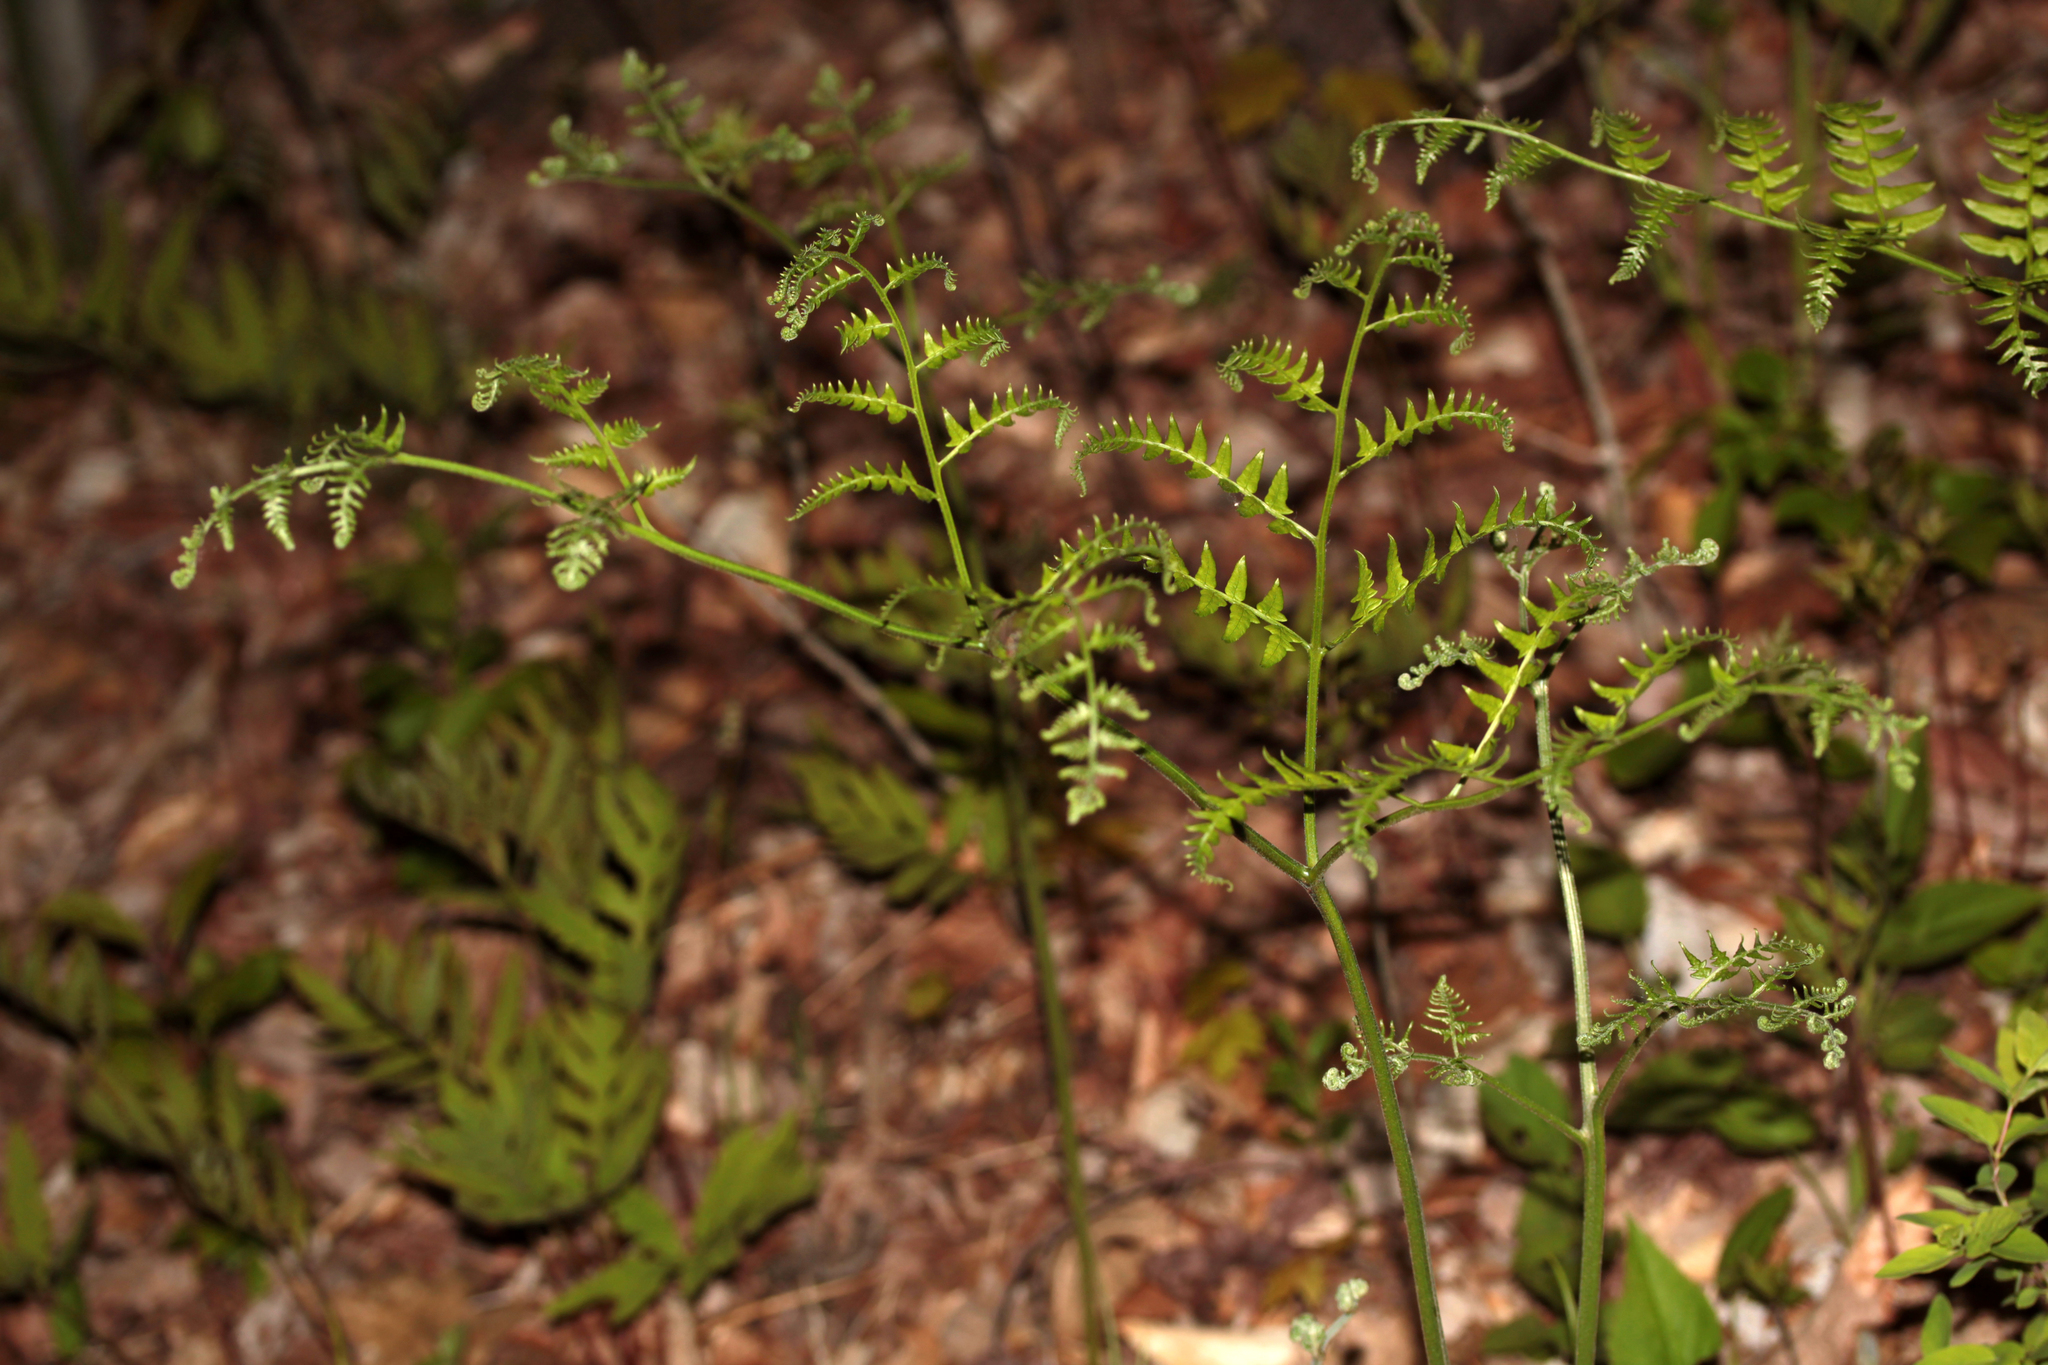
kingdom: Plantae
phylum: Tracheophyta
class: Polypodiopsida
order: Polypodiales
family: Dennstaedtiaceae
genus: Pteridium
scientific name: Pteridium aquilinum
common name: Bracken
